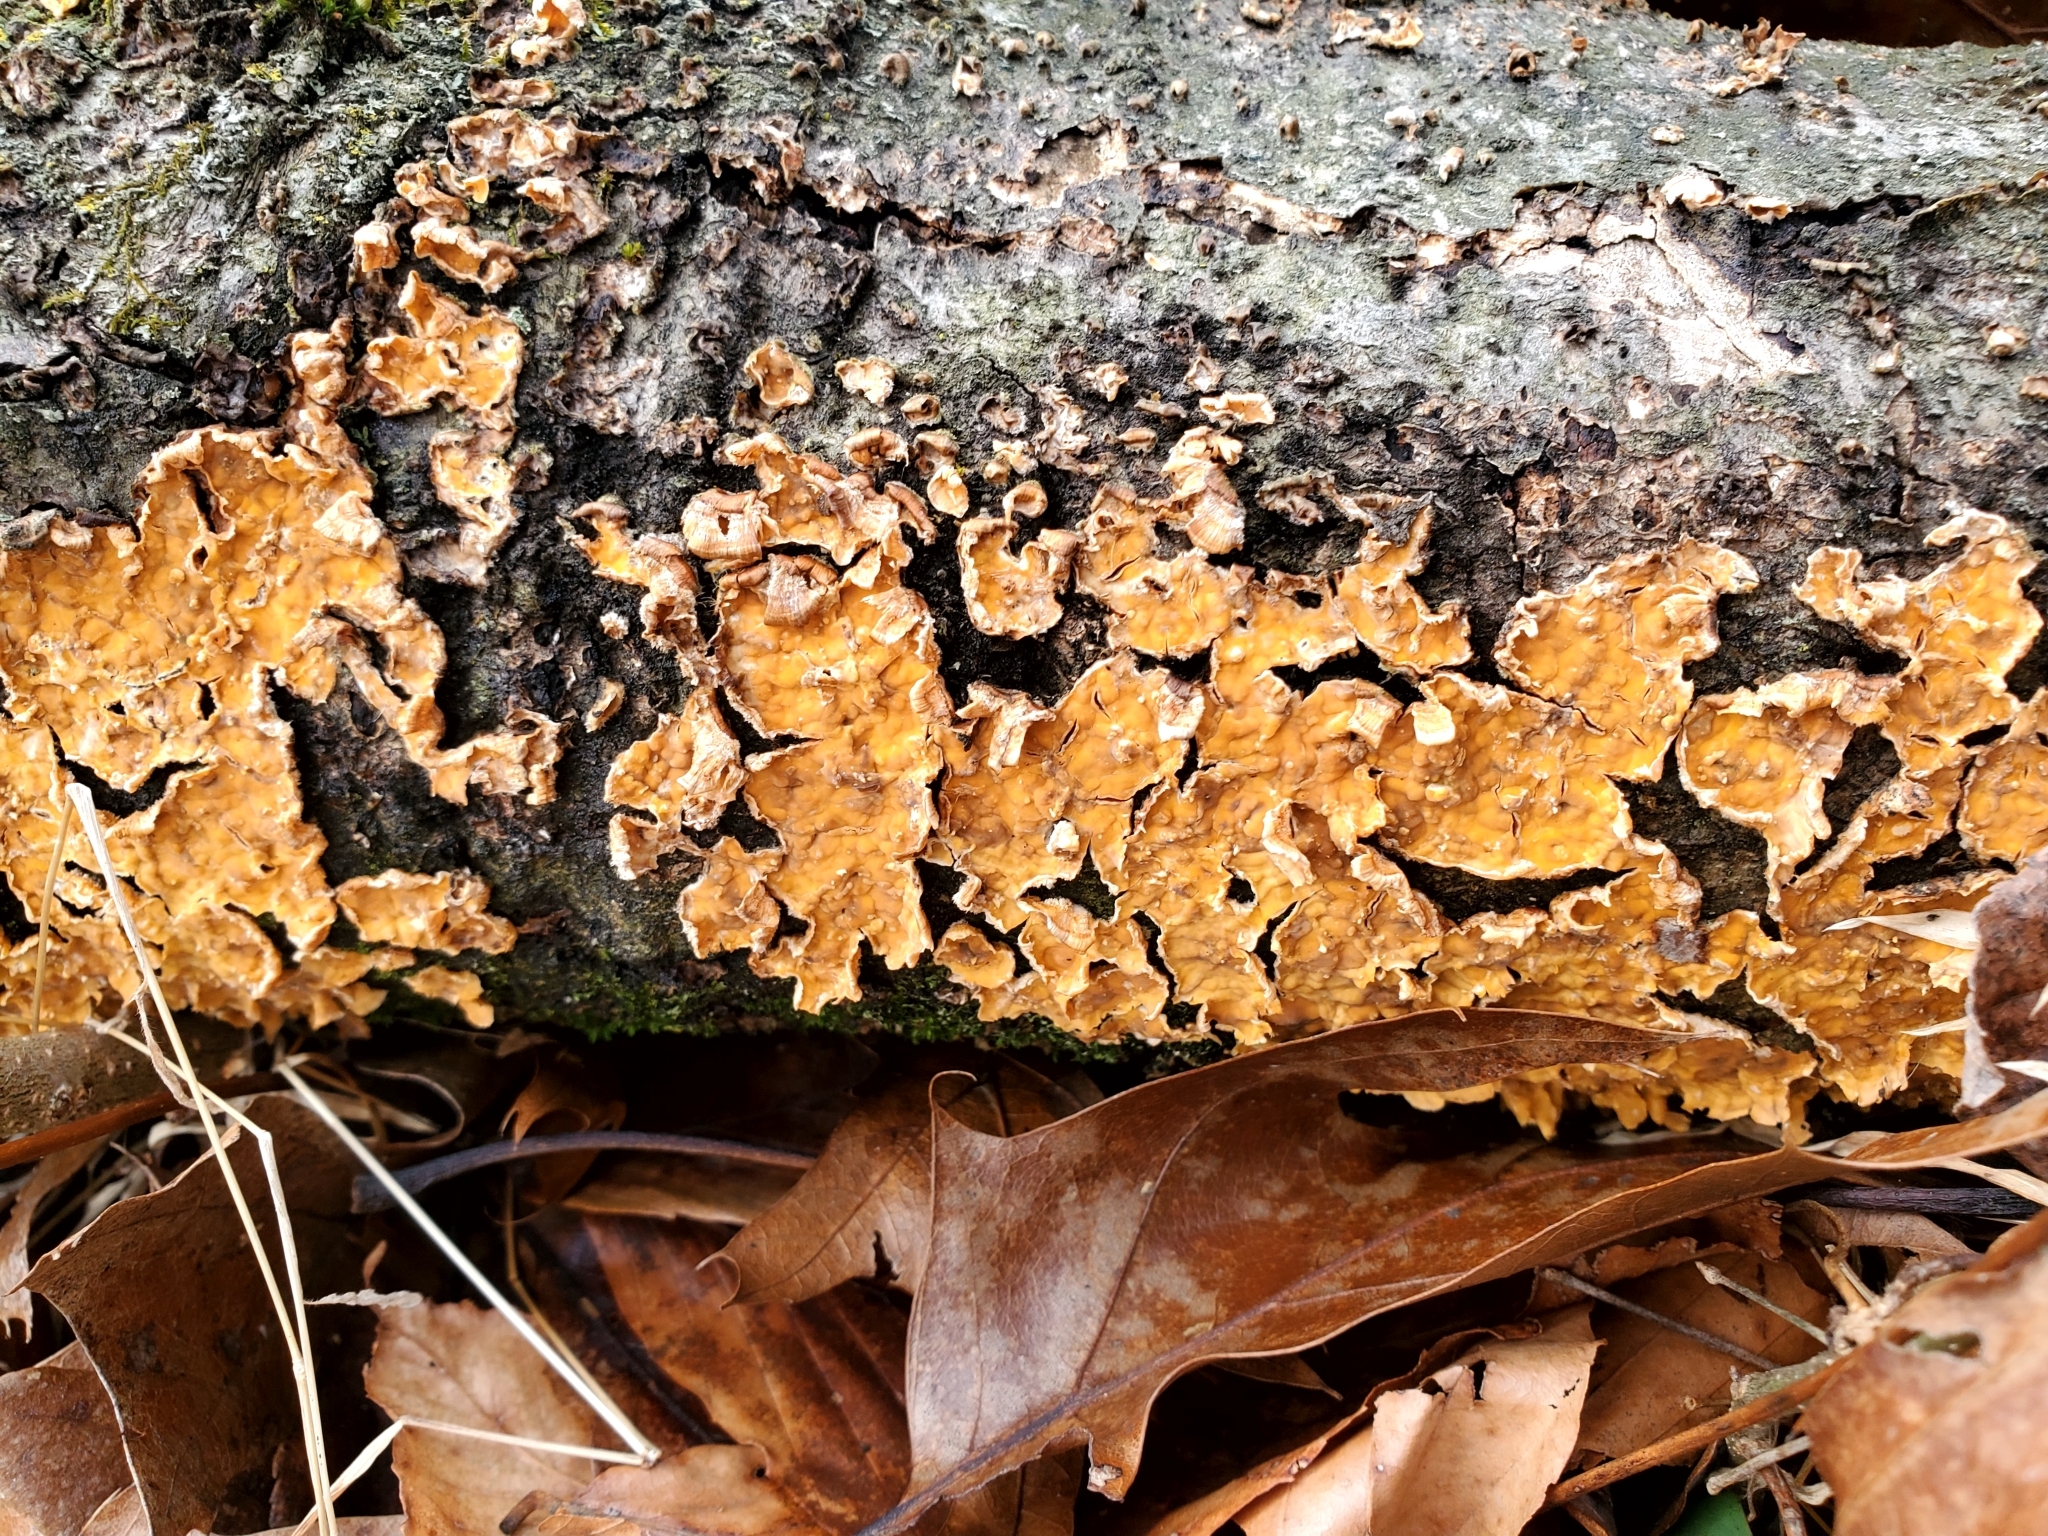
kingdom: Fungi
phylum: Basidiomycota
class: Agaricomycetes
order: Russulales
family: Stereaceae
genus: Stereum
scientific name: Stereum complicatum
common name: Crowded parchment
